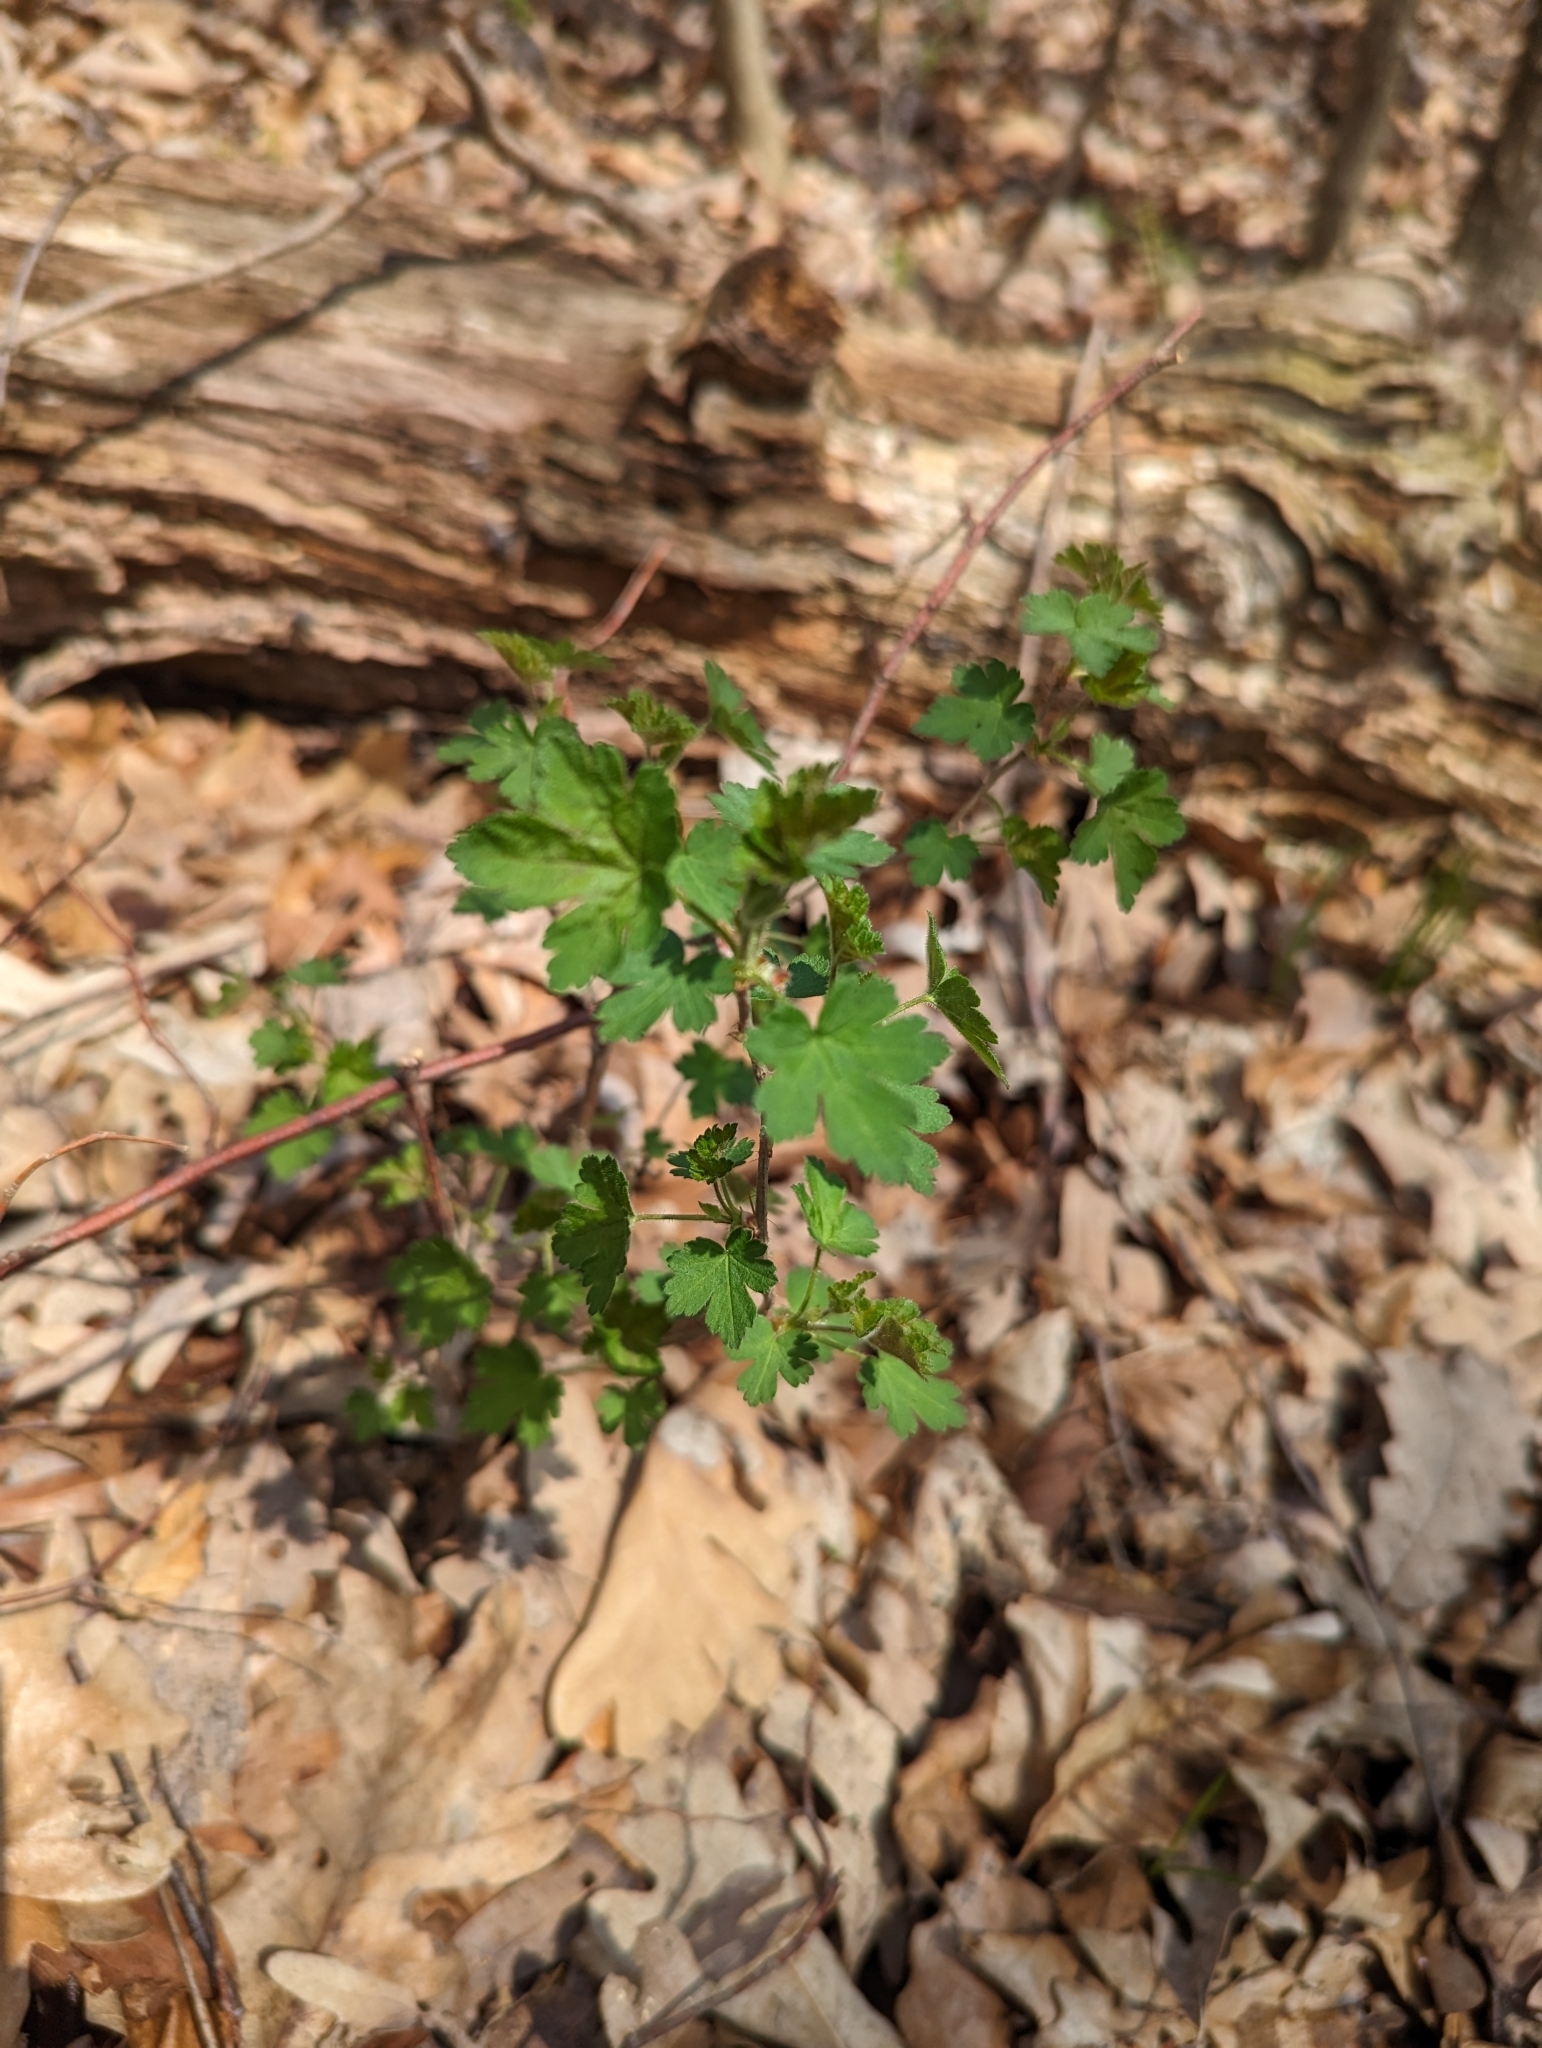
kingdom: Plantae
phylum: Tracheophyta
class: Magnoliopsida
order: Saxifragales
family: Grossulariaceae
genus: Ribes
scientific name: Ribes cynosbati
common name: American gooseberry
